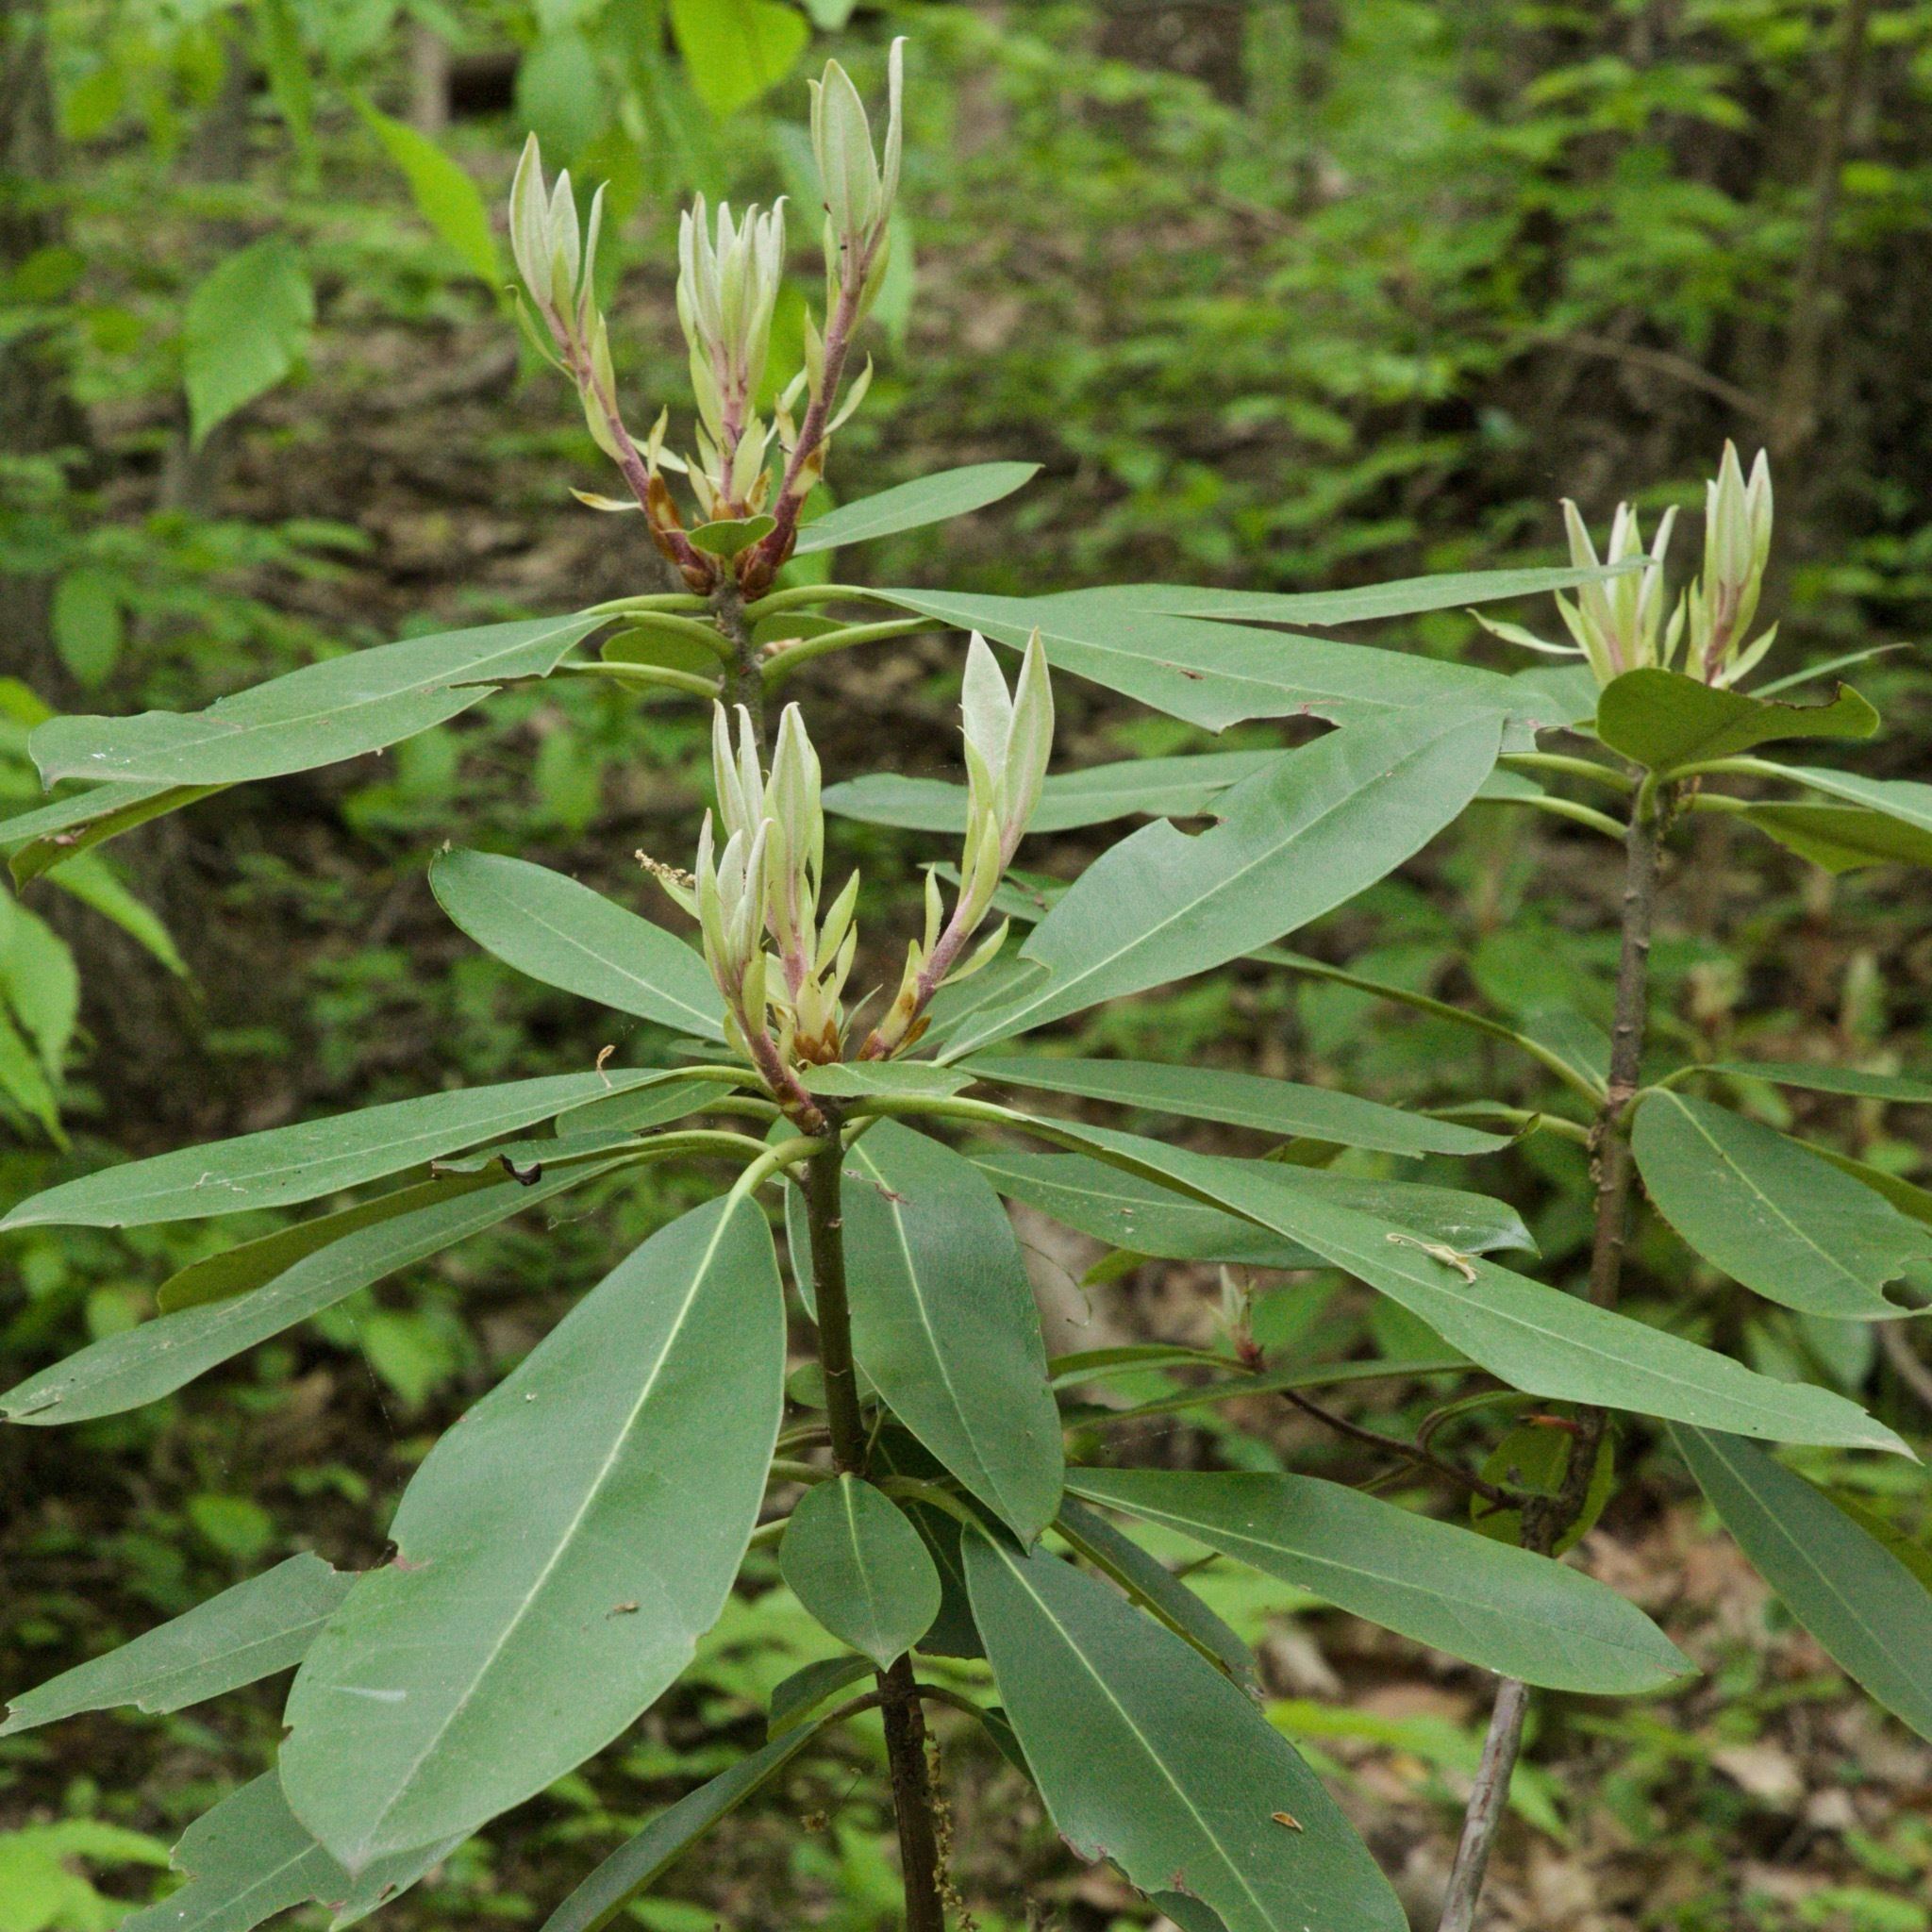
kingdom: Plantae
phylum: Tracheophyta
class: Magnoliopsida
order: Ericales
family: Ericaceae
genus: Rhododendron
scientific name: Rhododendron maximum
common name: Great rhododendron
